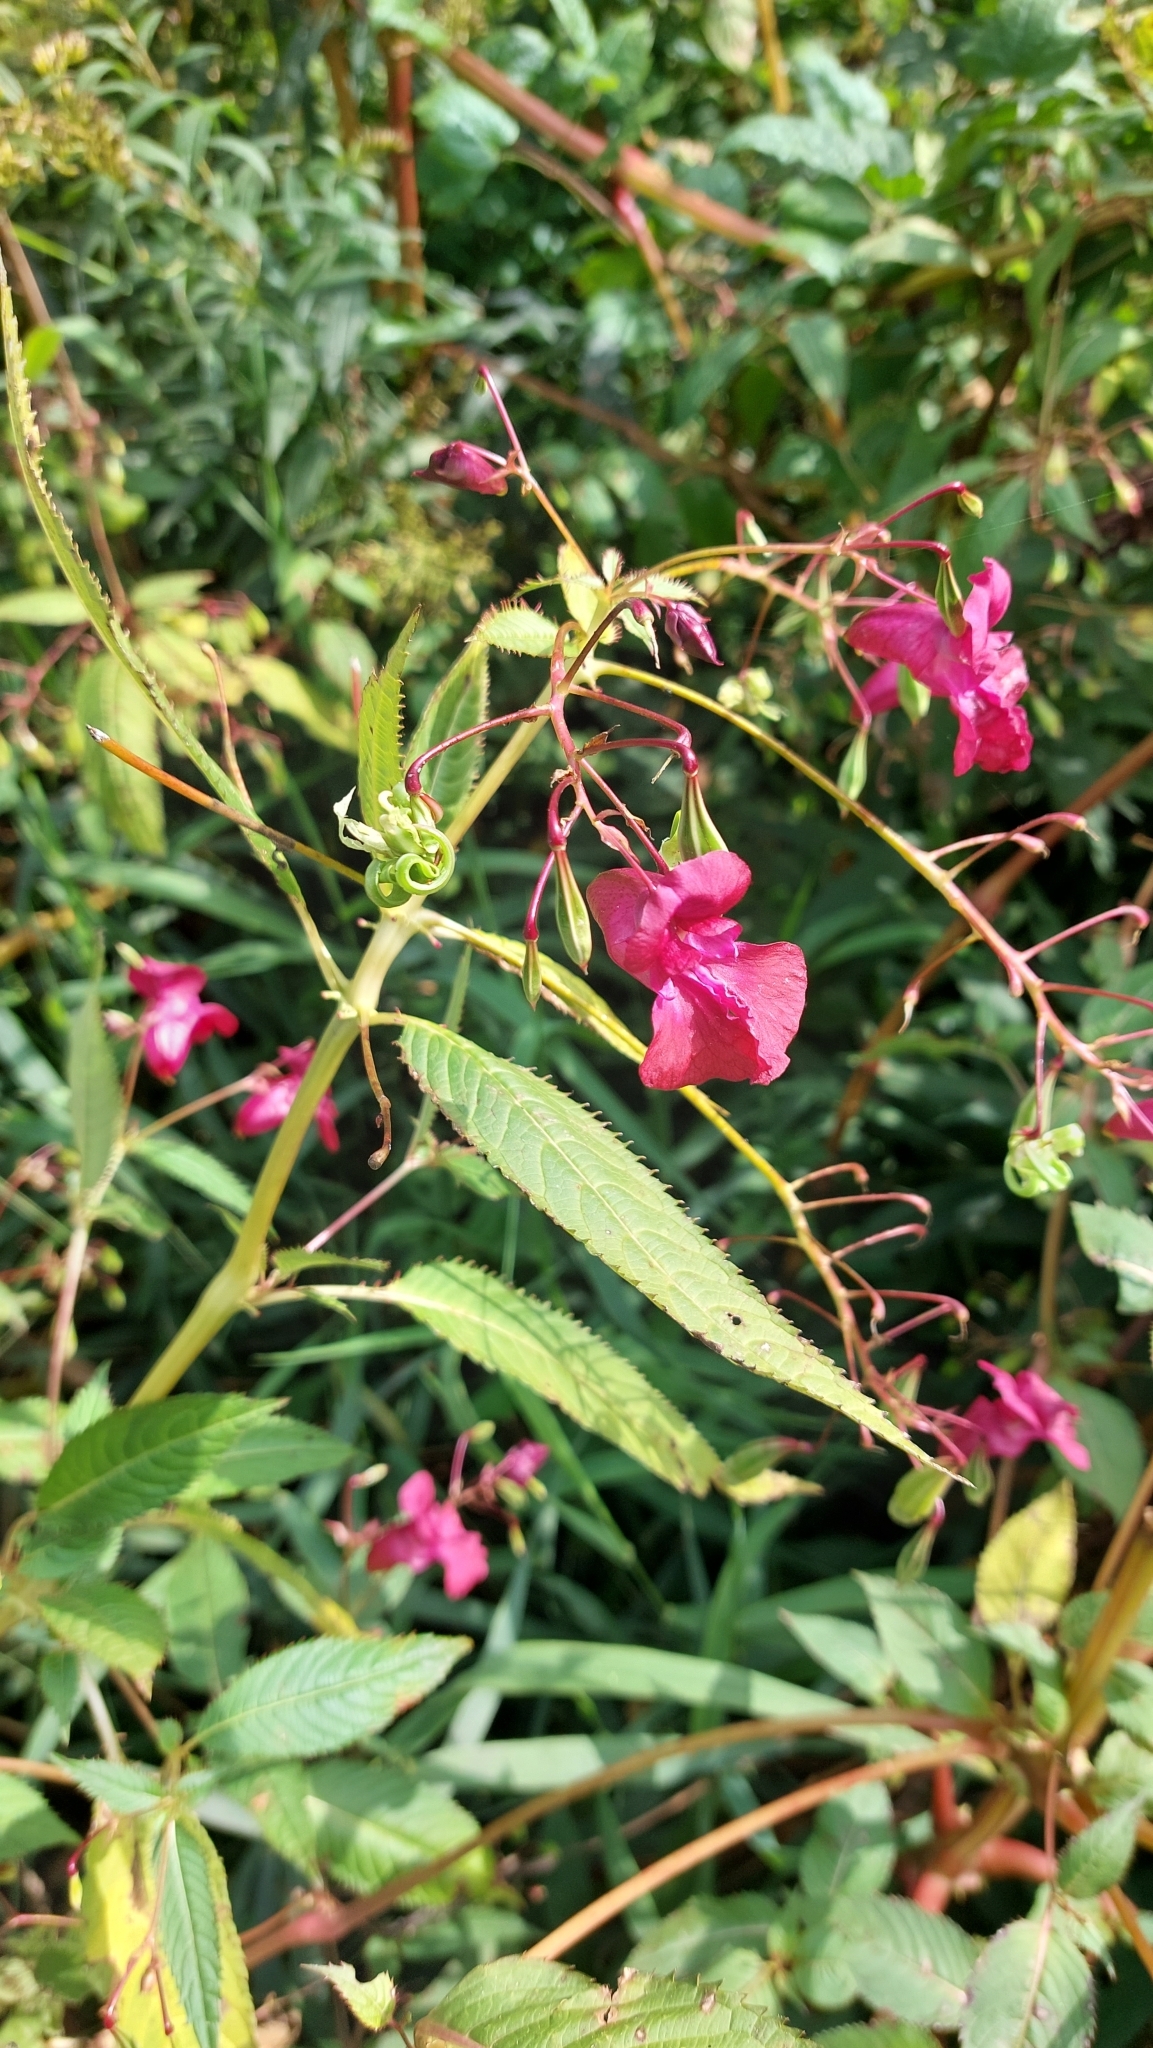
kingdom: Plantae
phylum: Tracheophyta
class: Magnoliopsida
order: Ericales
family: Balsaminaceae
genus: Impatiens
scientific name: Impatiens glandulifera
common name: Himalayan balsam
